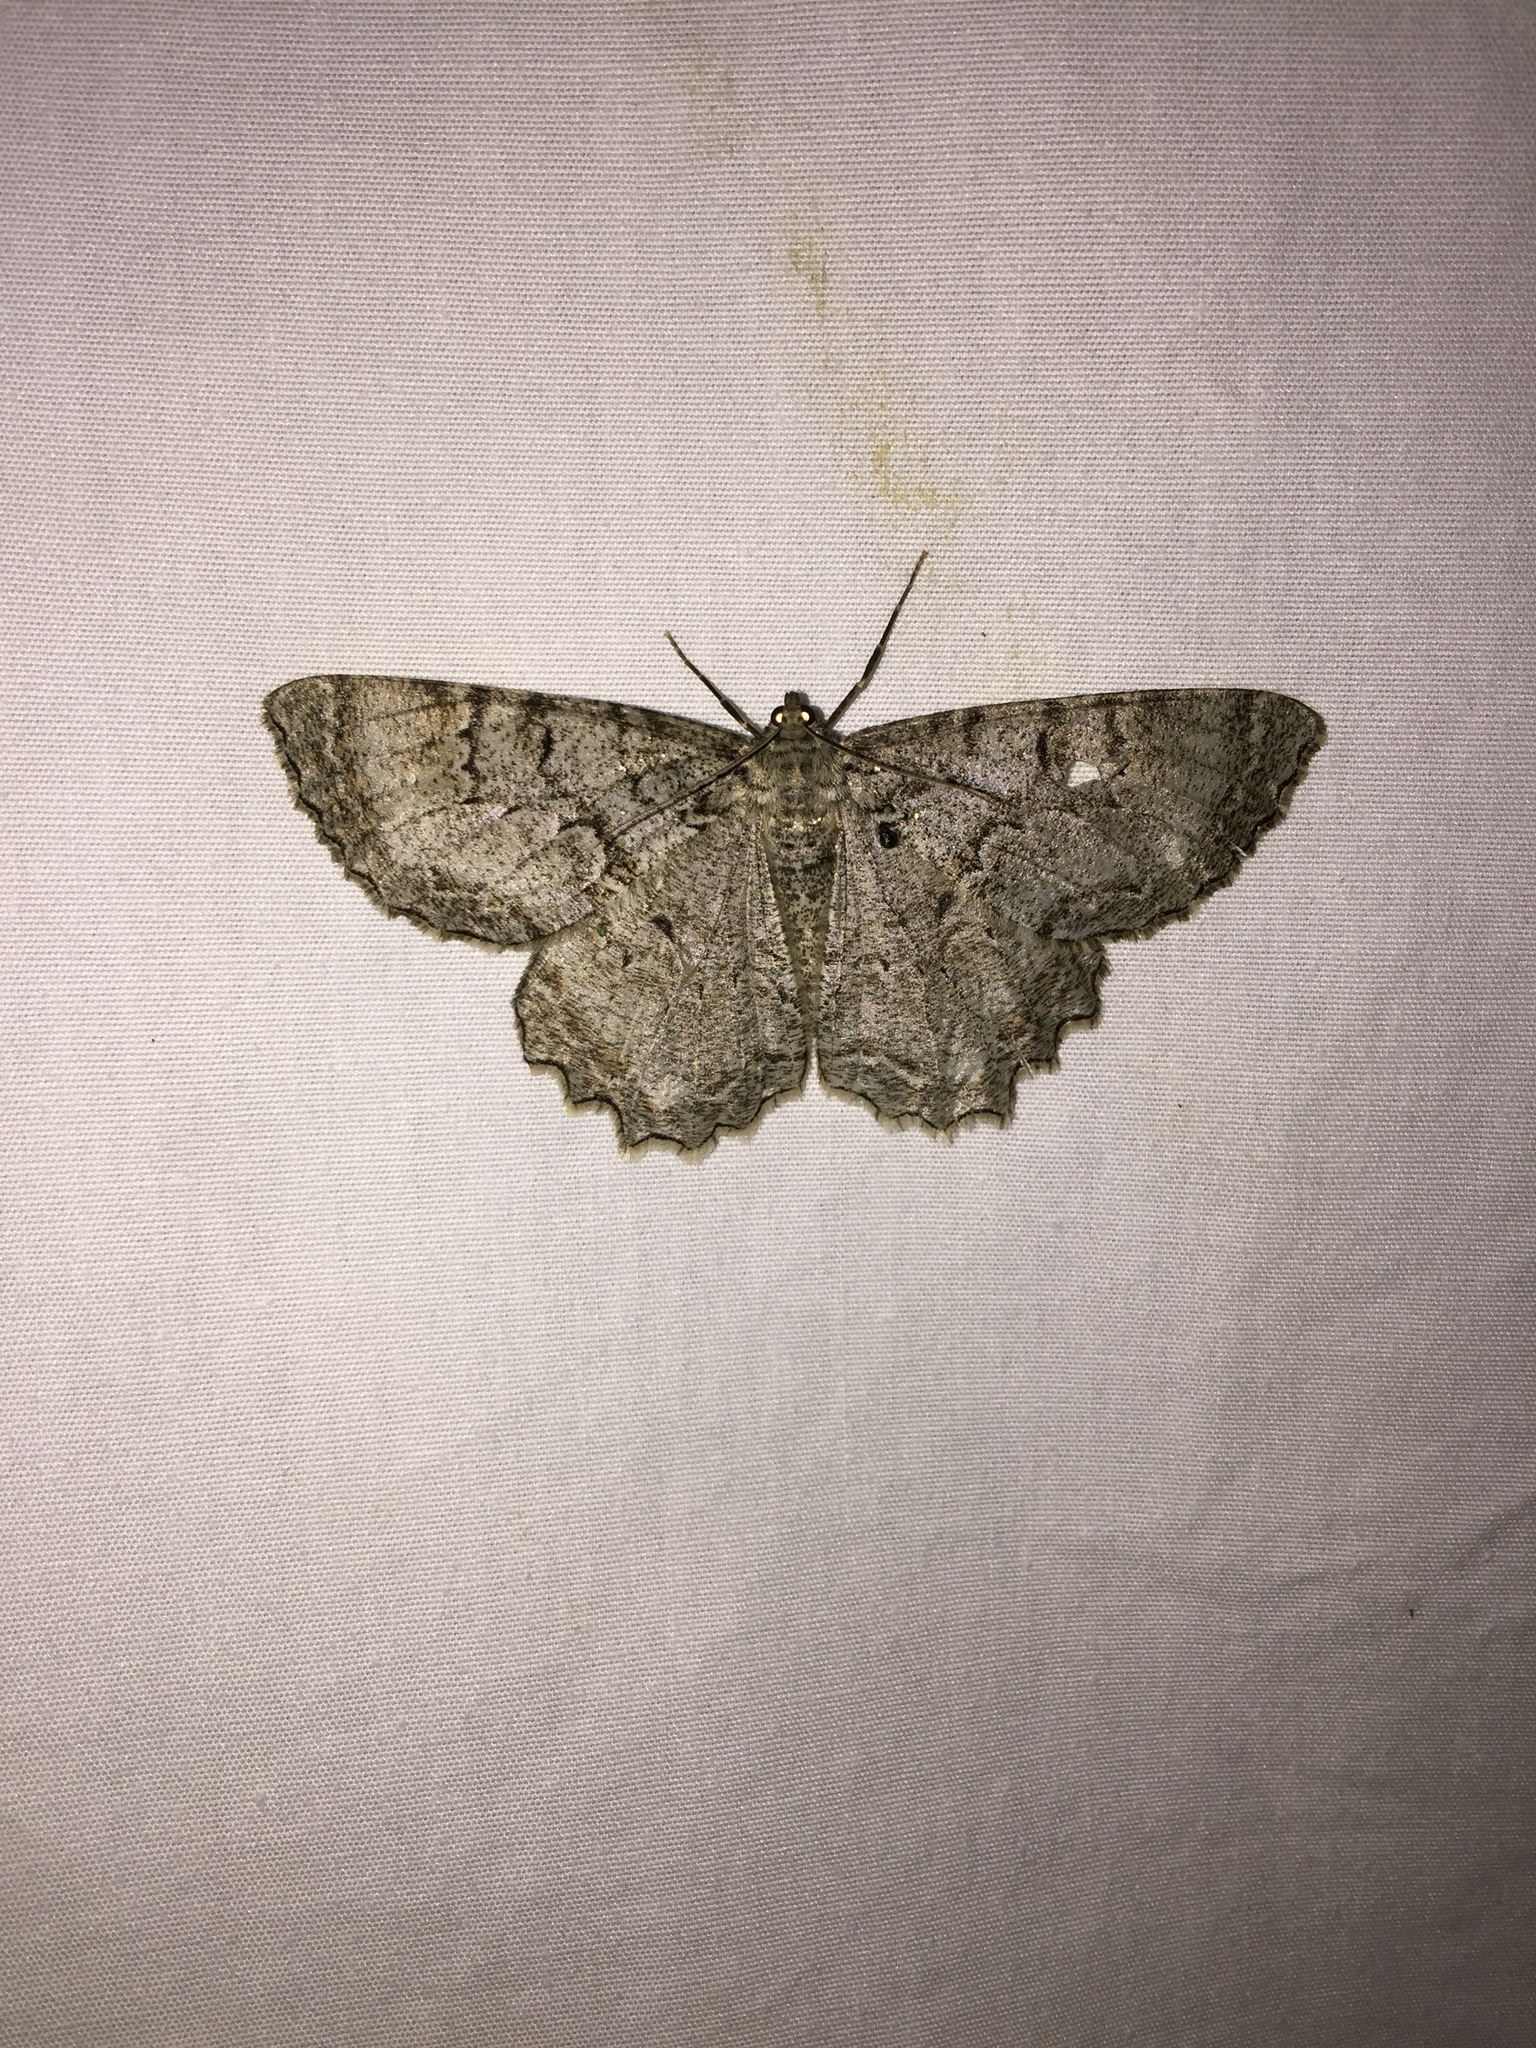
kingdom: Animalia
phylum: Arthropoda
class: Insecta
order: Lepidoptera
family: Geometridae
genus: Epimecis
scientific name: Epimecis hortaria
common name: Tulip-tree beauty
